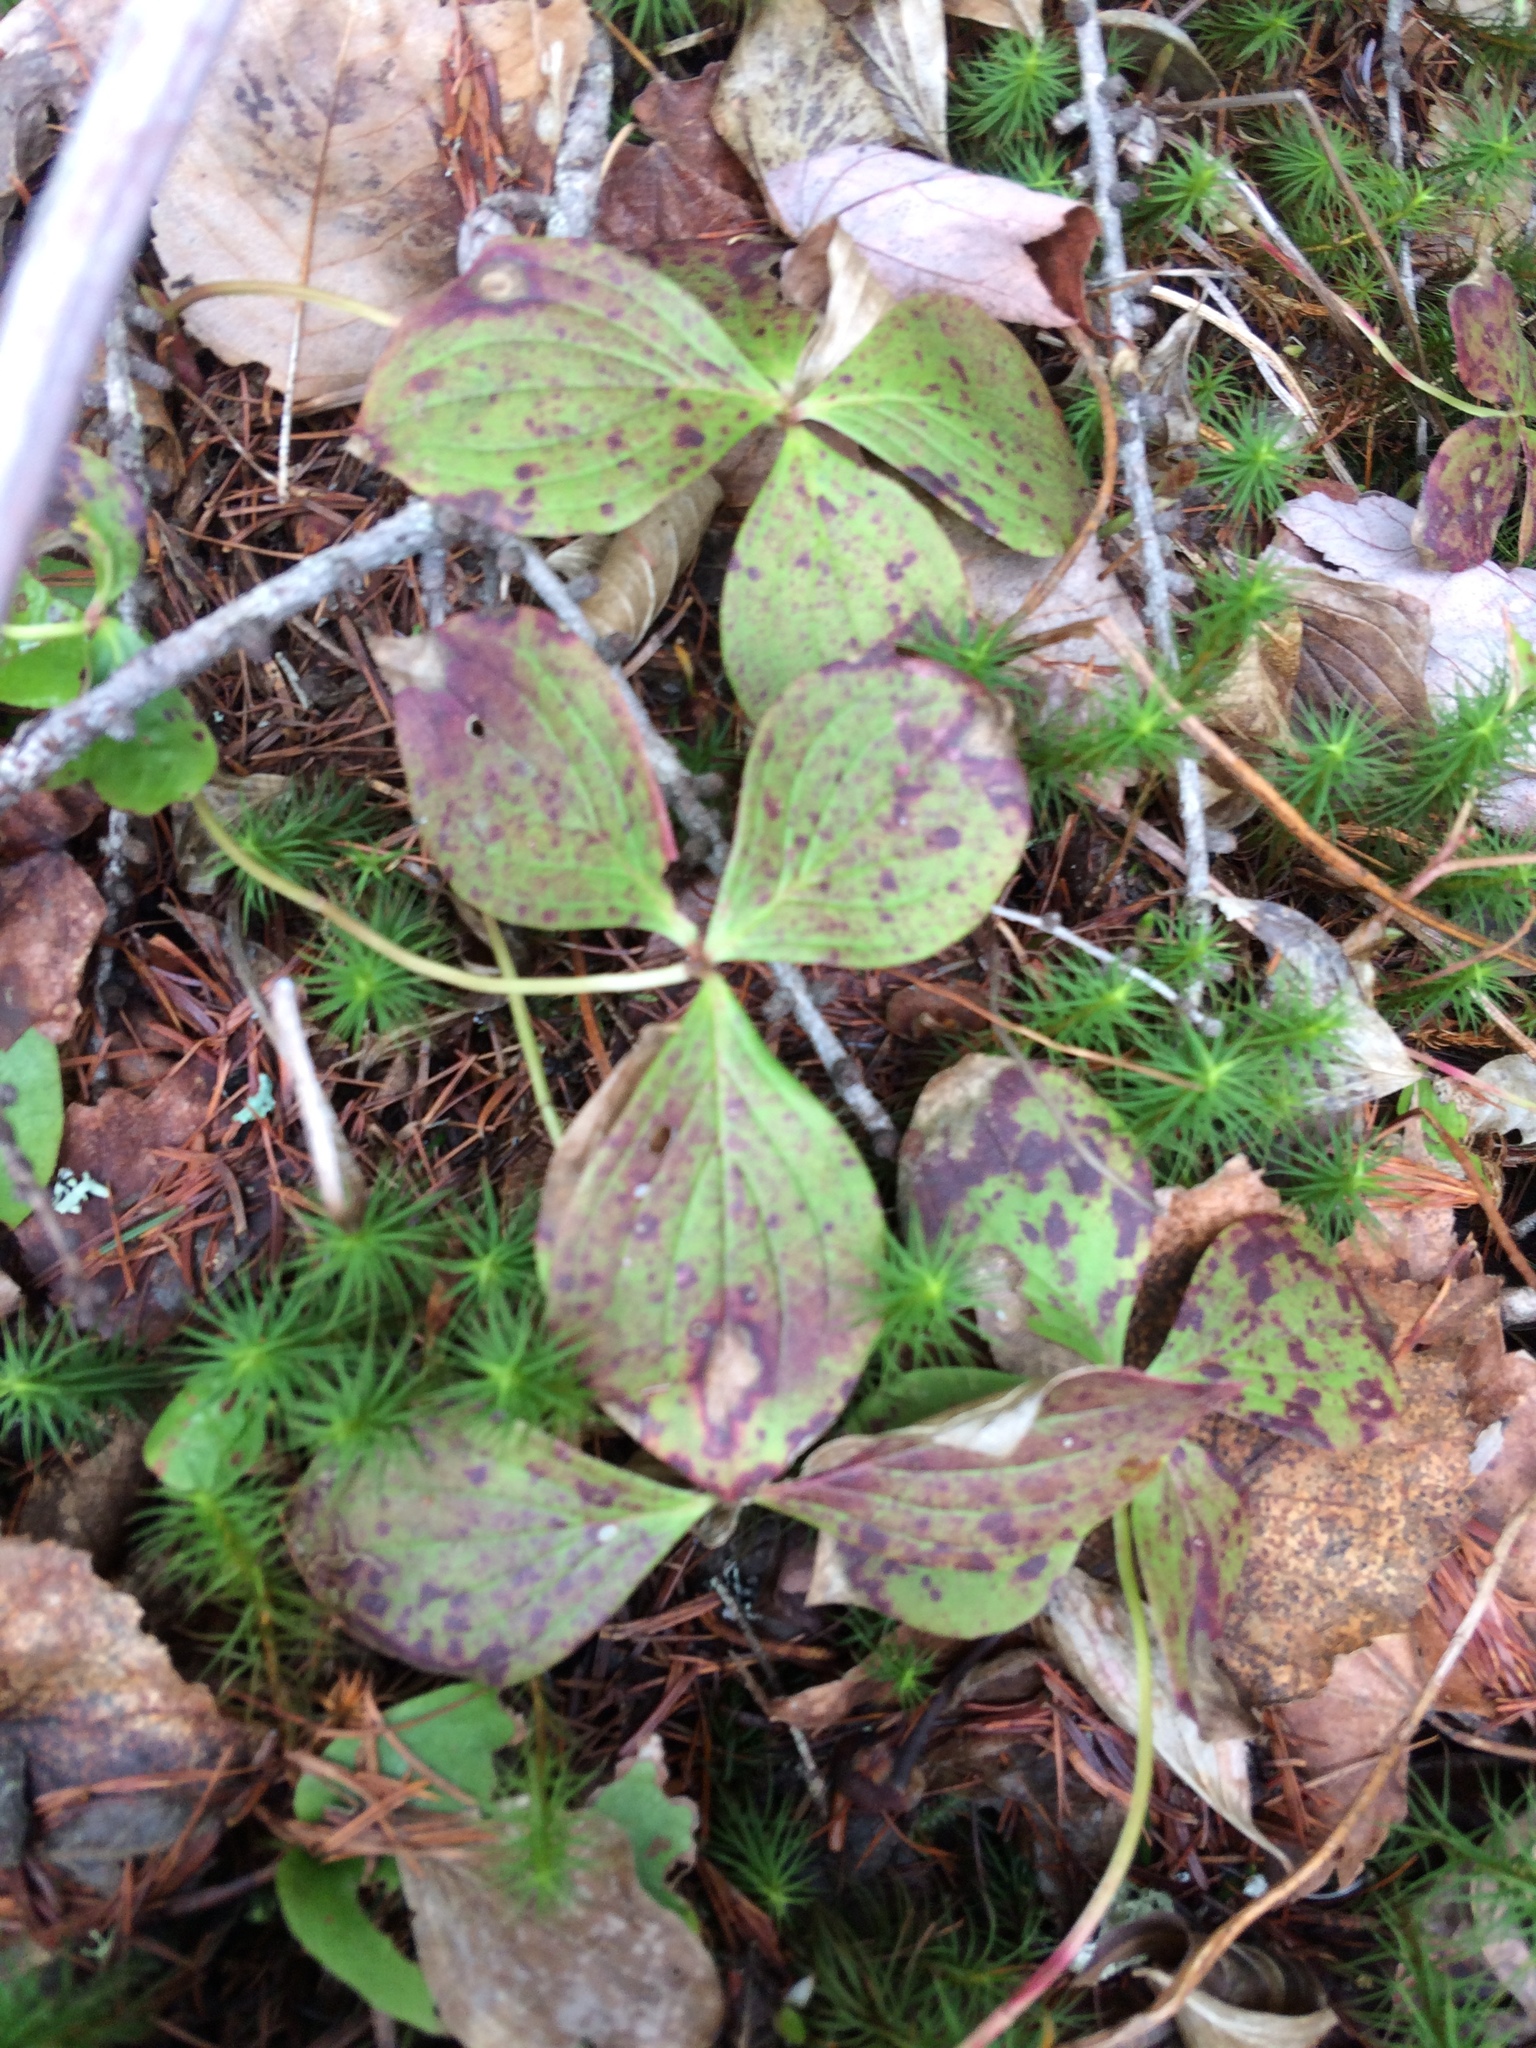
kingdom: Plantae
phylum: Tracheophyta
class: Magnoliopsida
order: Cornales
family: Cornaceae
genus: Cornus
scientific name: Cornus canadensis
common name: Creeping dogwood
